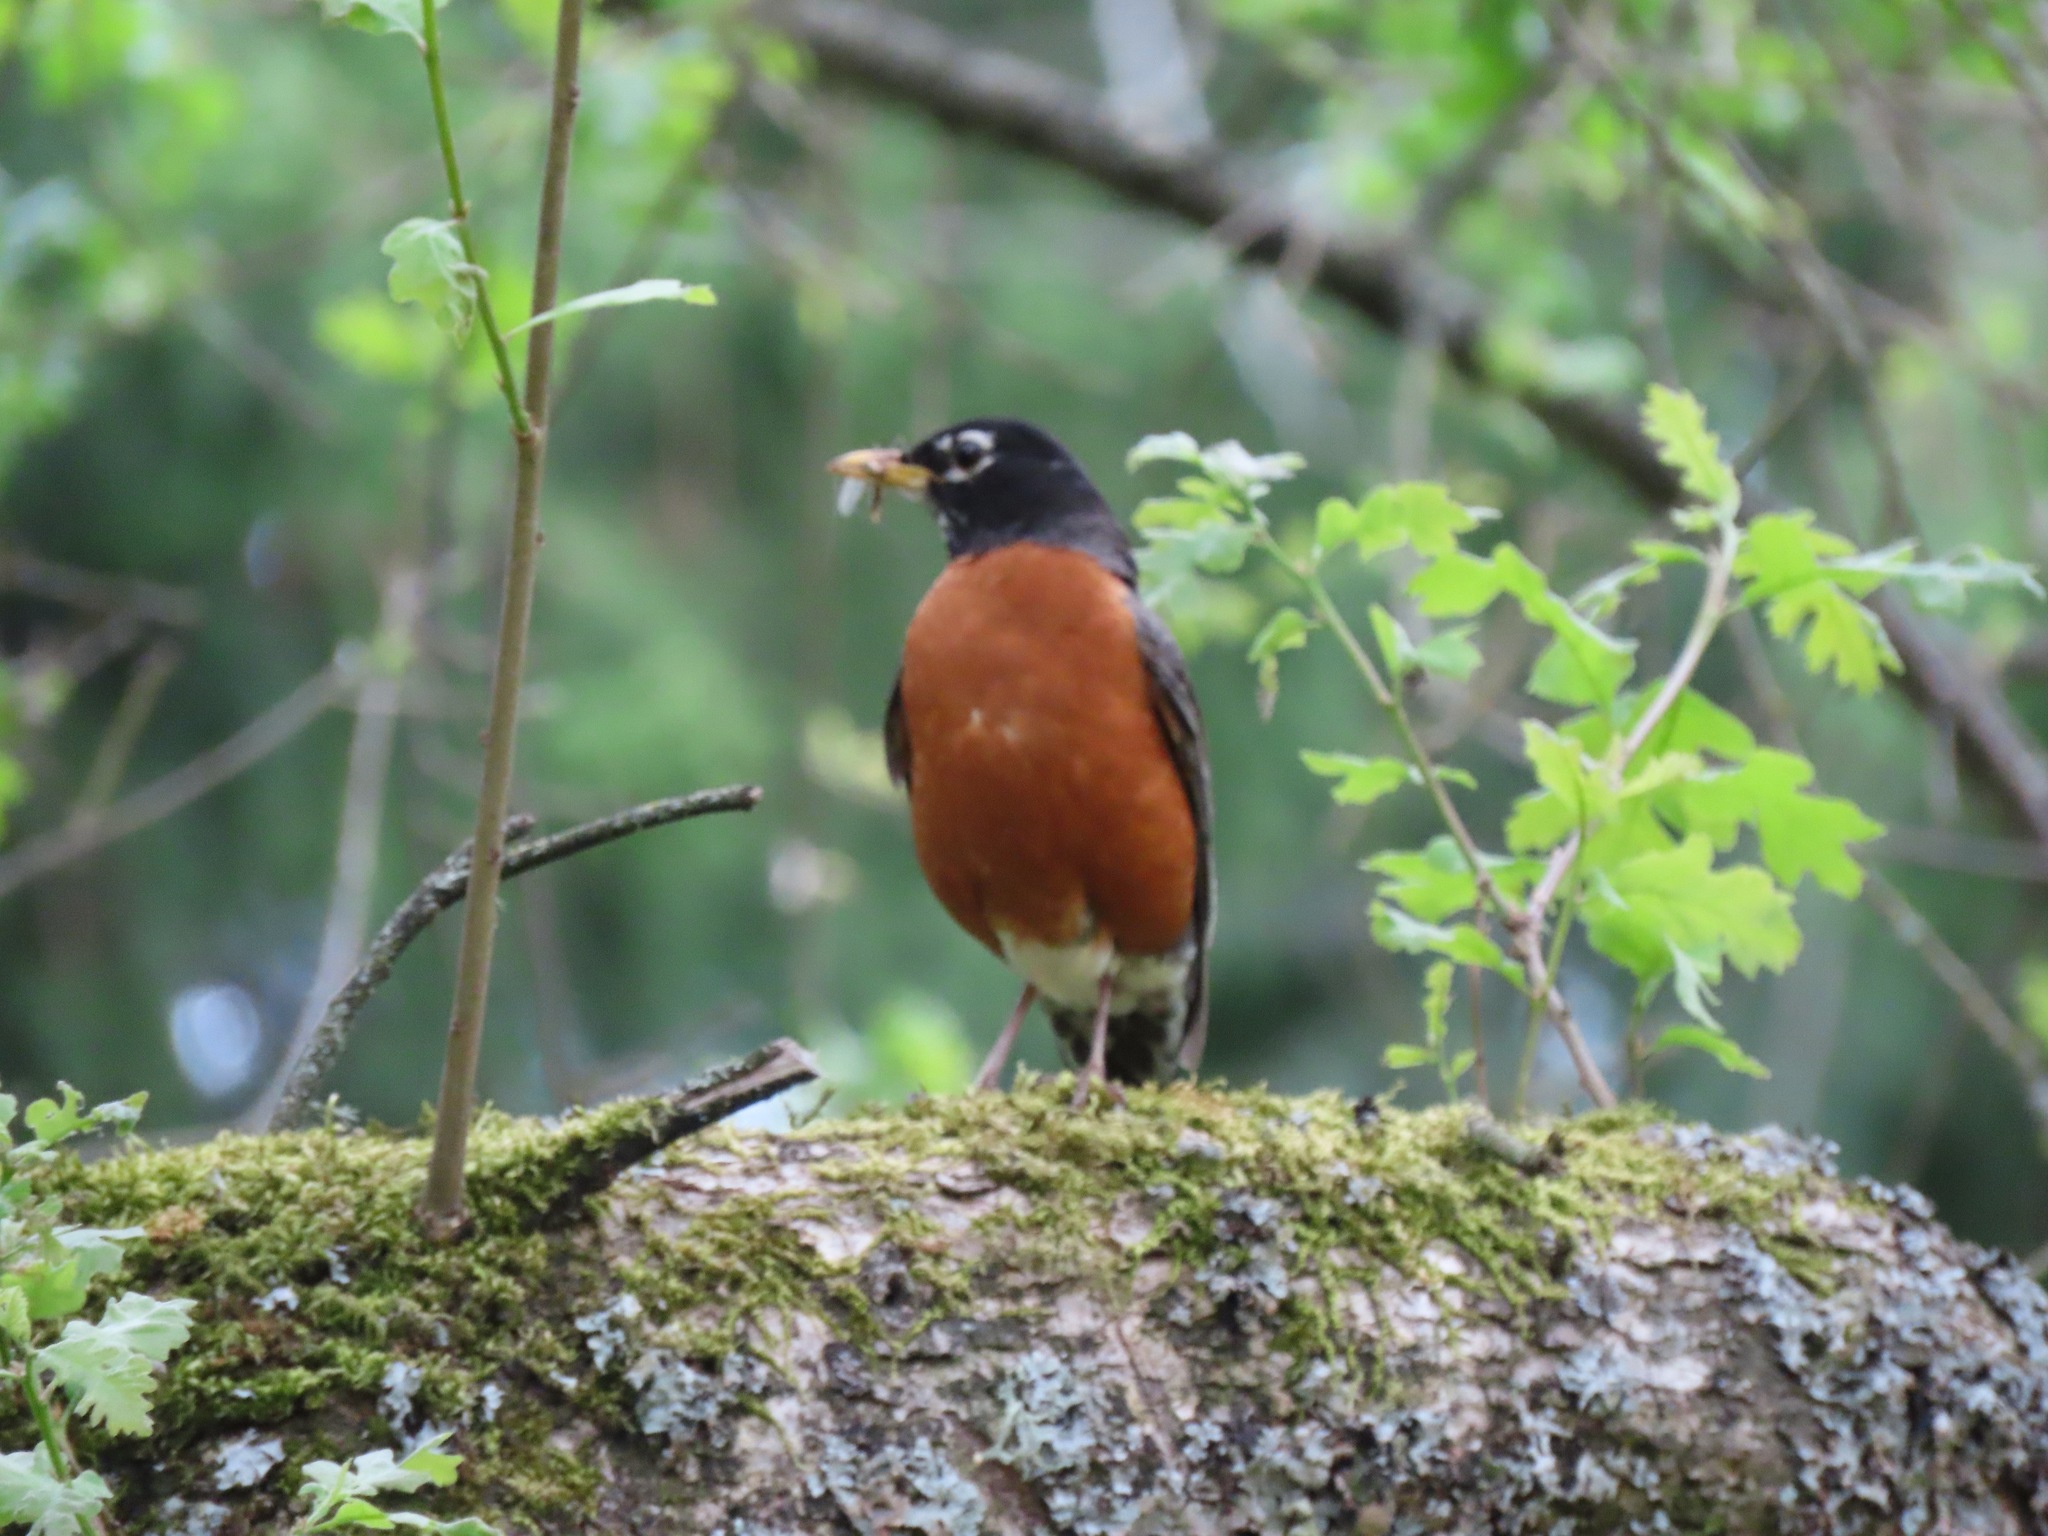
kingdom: Animalia
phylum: Chordata
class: Aves
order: Passeriformes
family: Turdidae
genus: Turdus
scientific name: Turdus migratorius
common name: American robin
